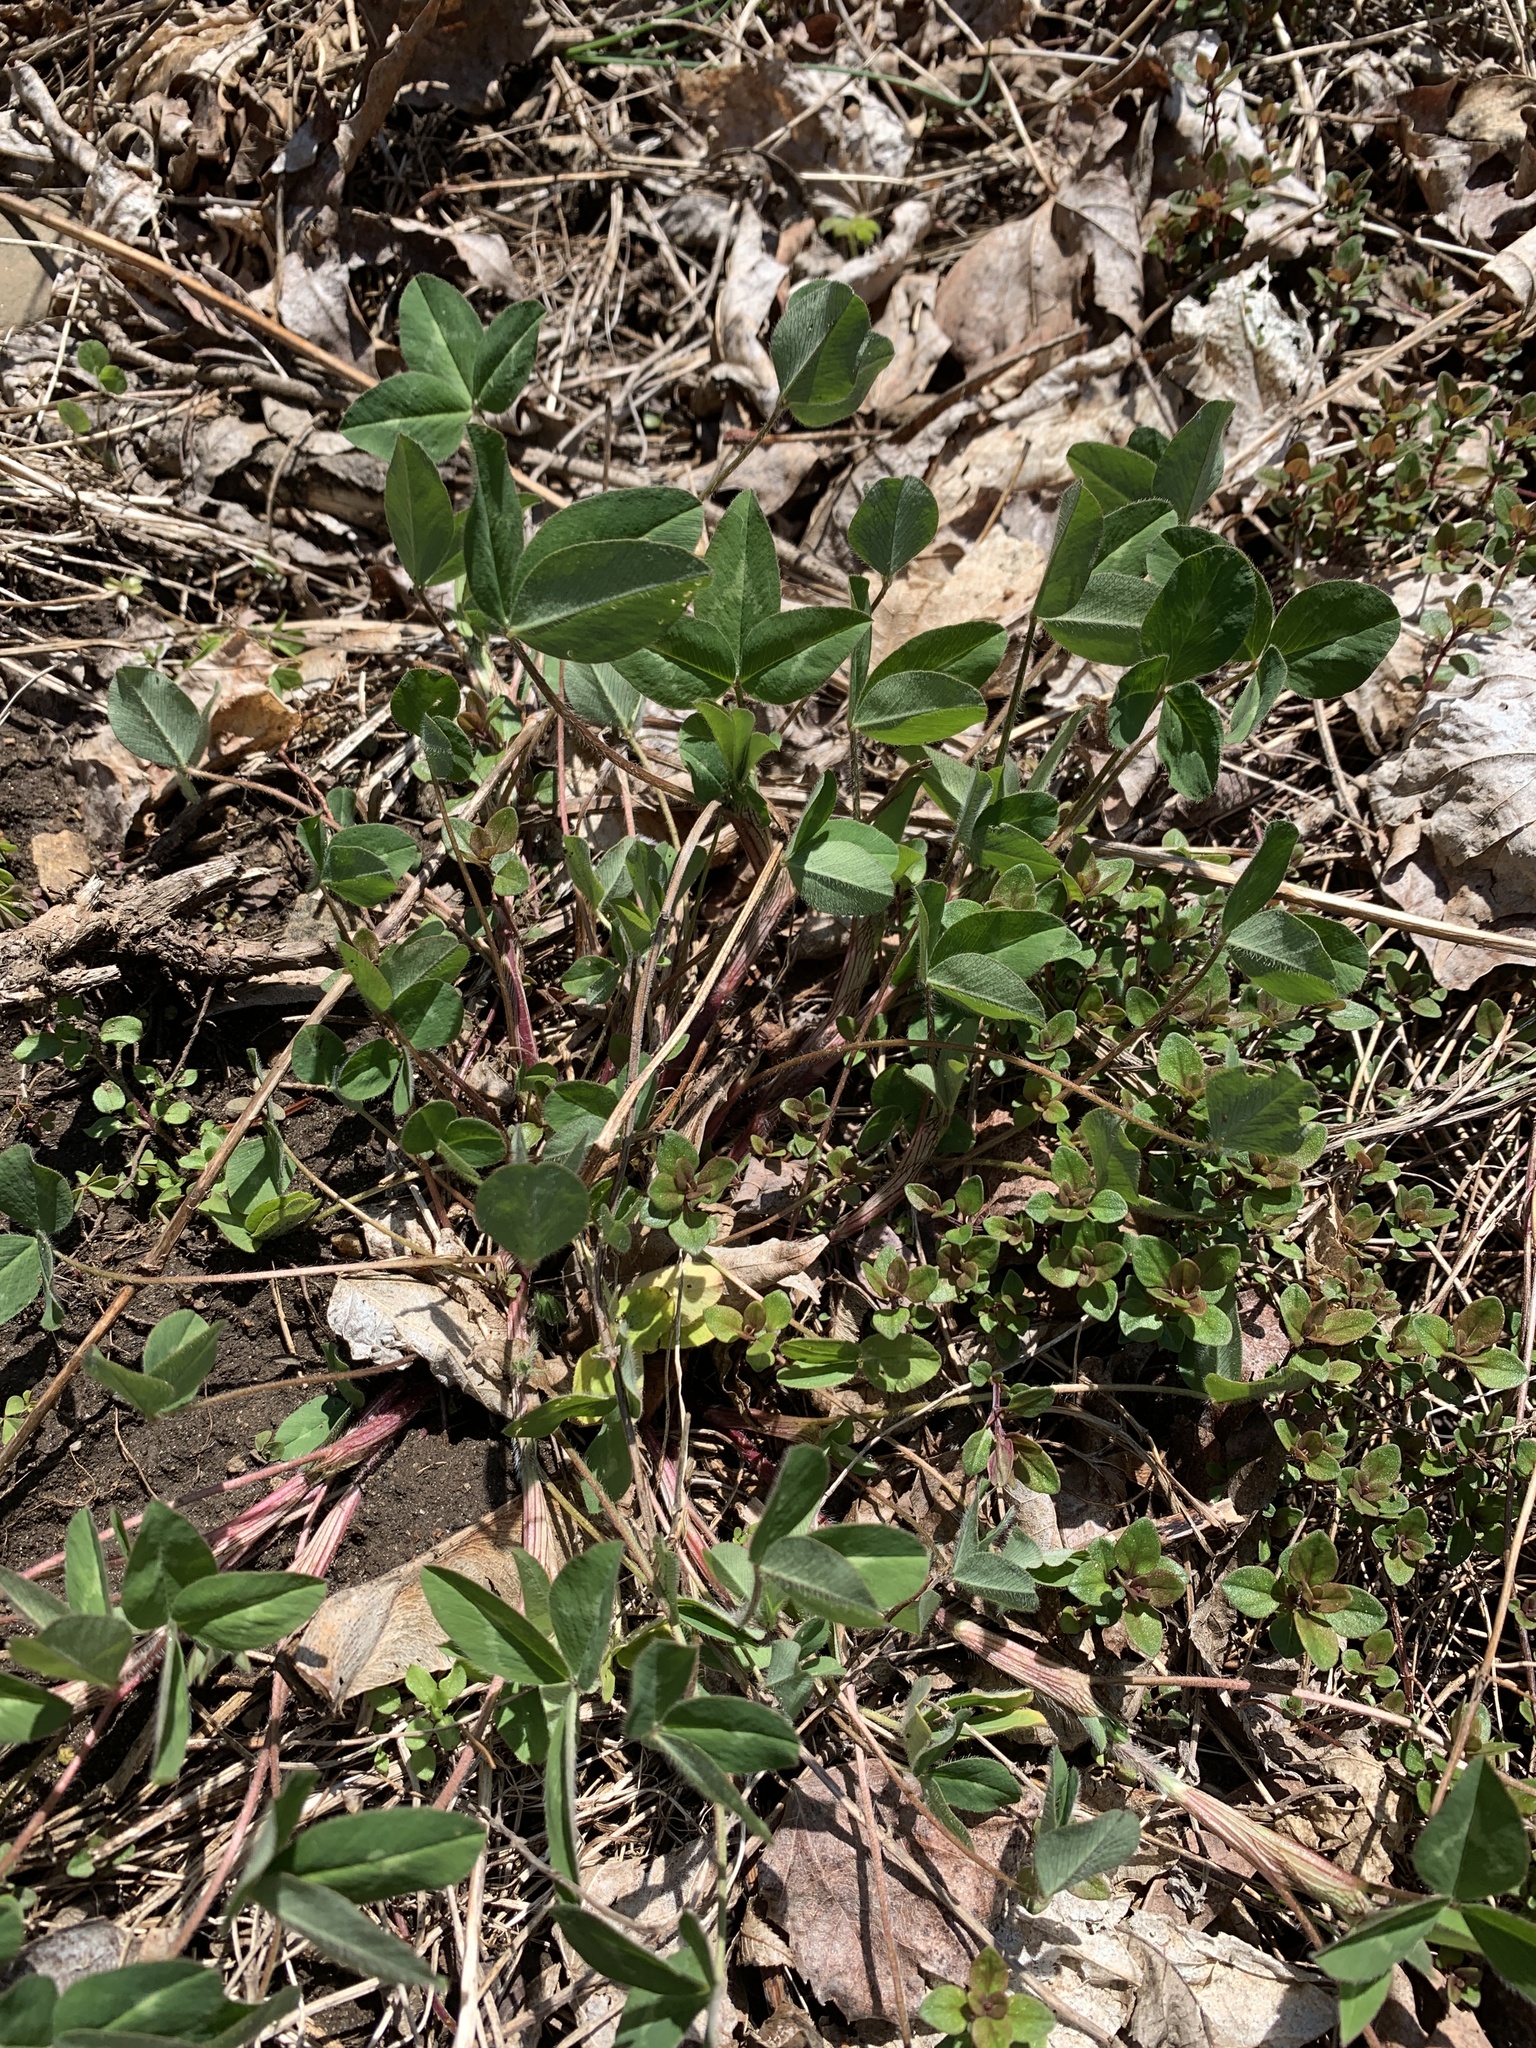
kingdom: Plantae
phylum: Tracheophyta
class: Magnoliopsida
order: Fabales
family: Fabaceae
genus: Trifolium
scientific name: Trifolium pratense
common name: Red clover
